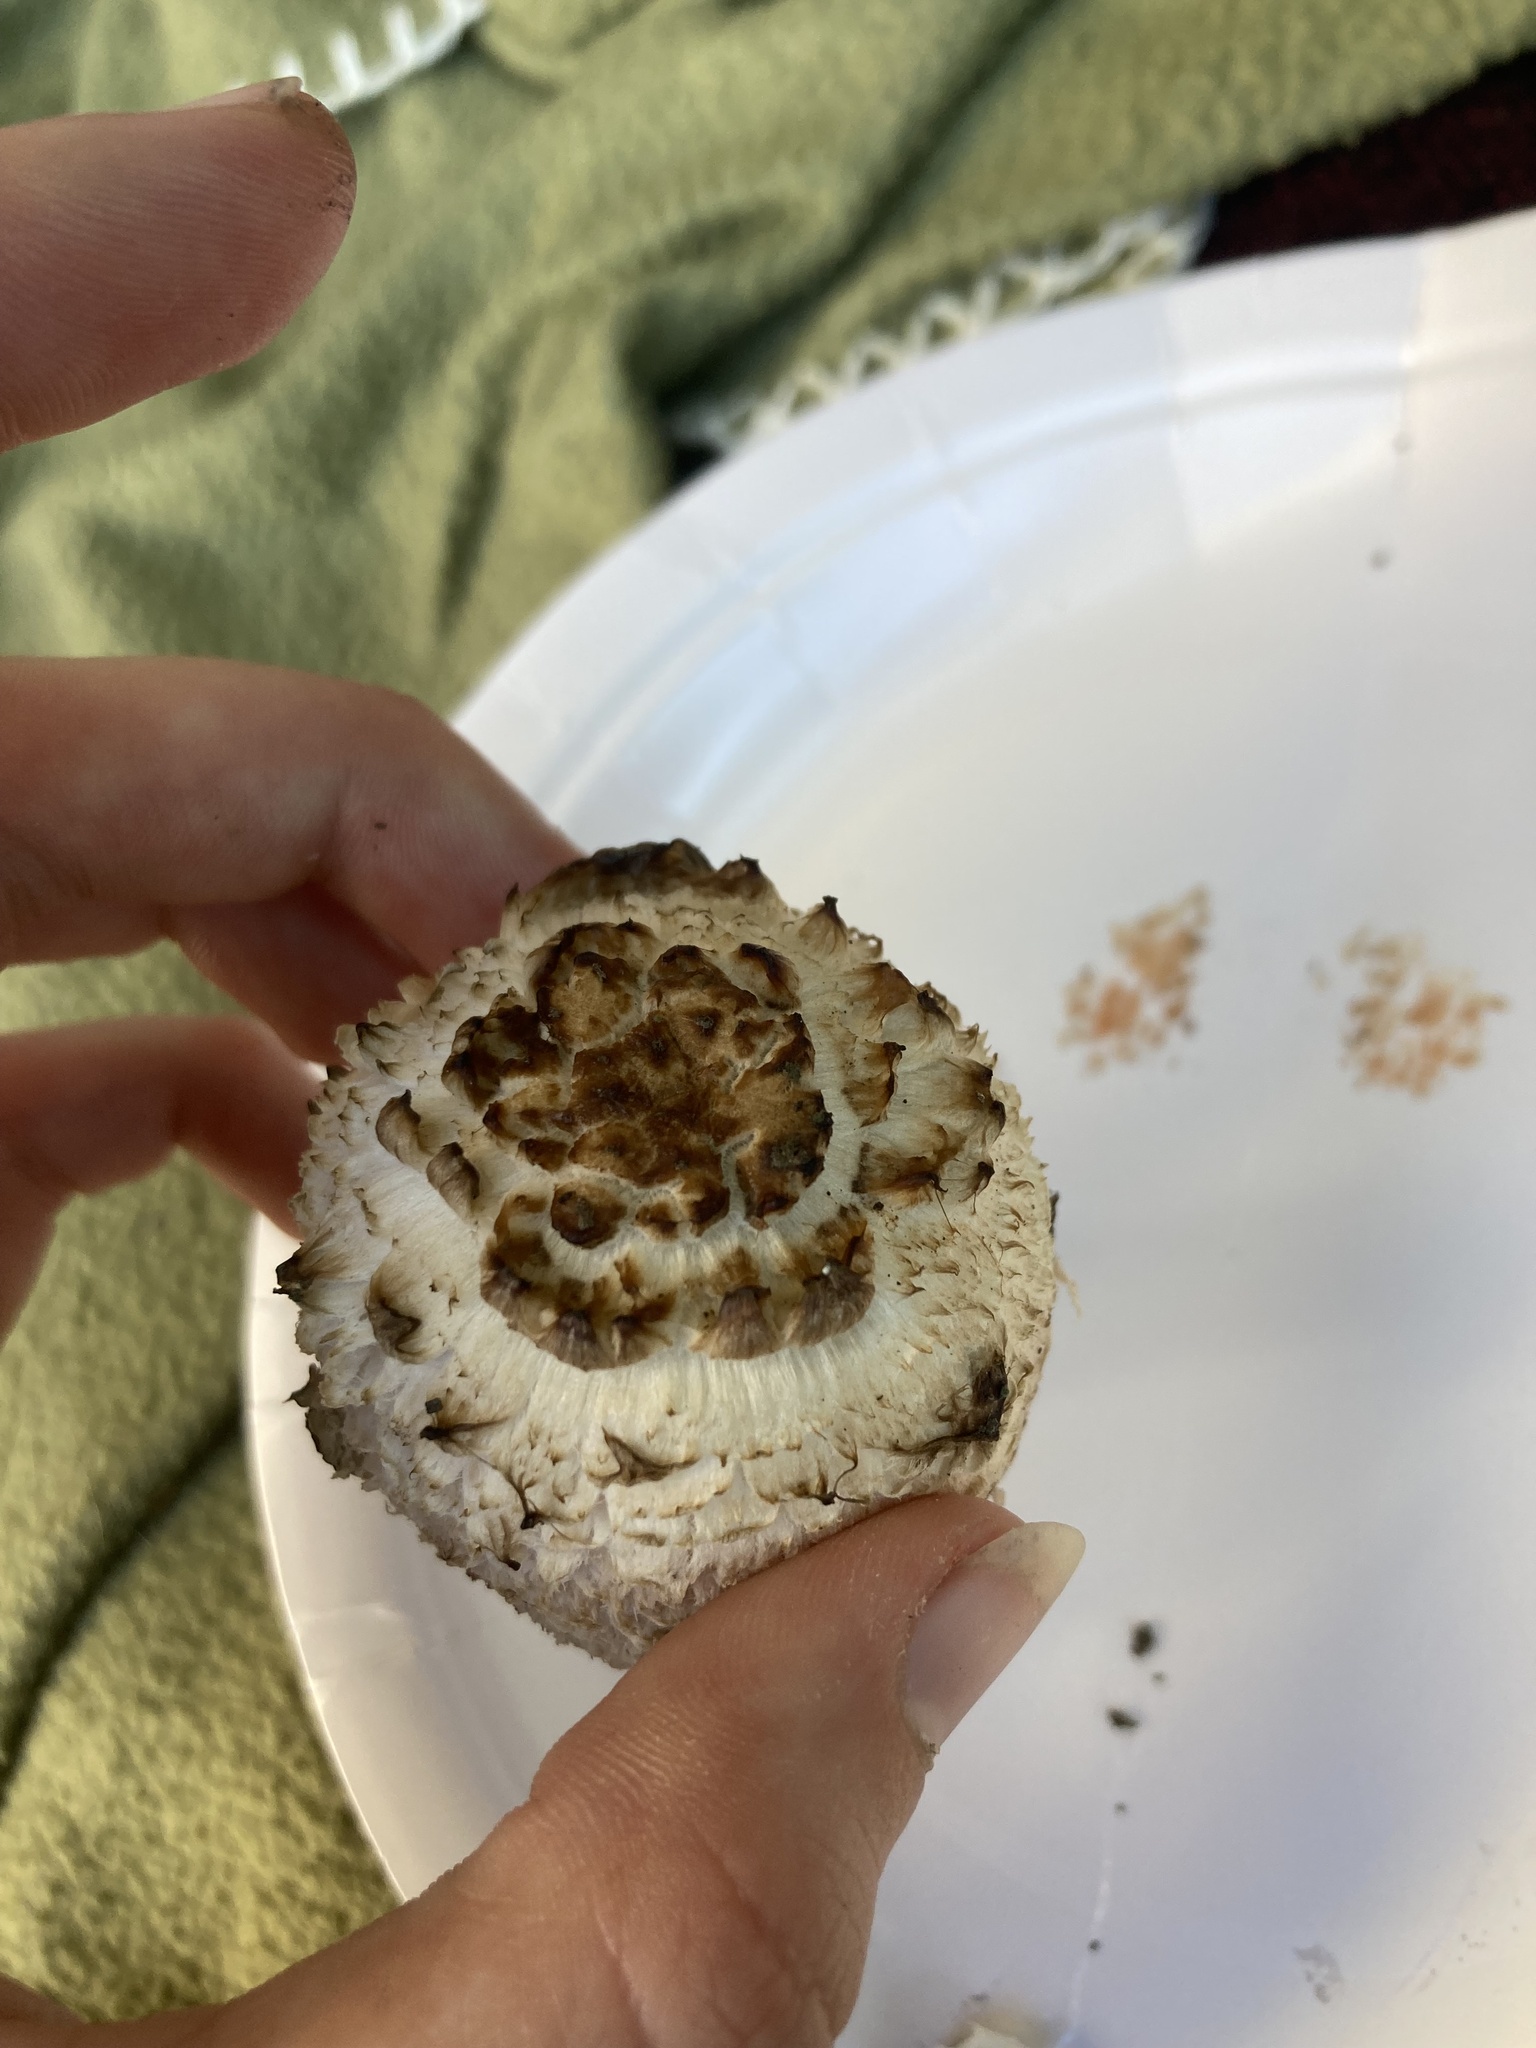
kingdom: Fungi
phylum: Basidiomycota
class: Agaricomycetes
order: Agaricales
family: Agaricaceae
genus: Coprinus
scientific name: Coprinus comatus
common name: Lawyer's wig
